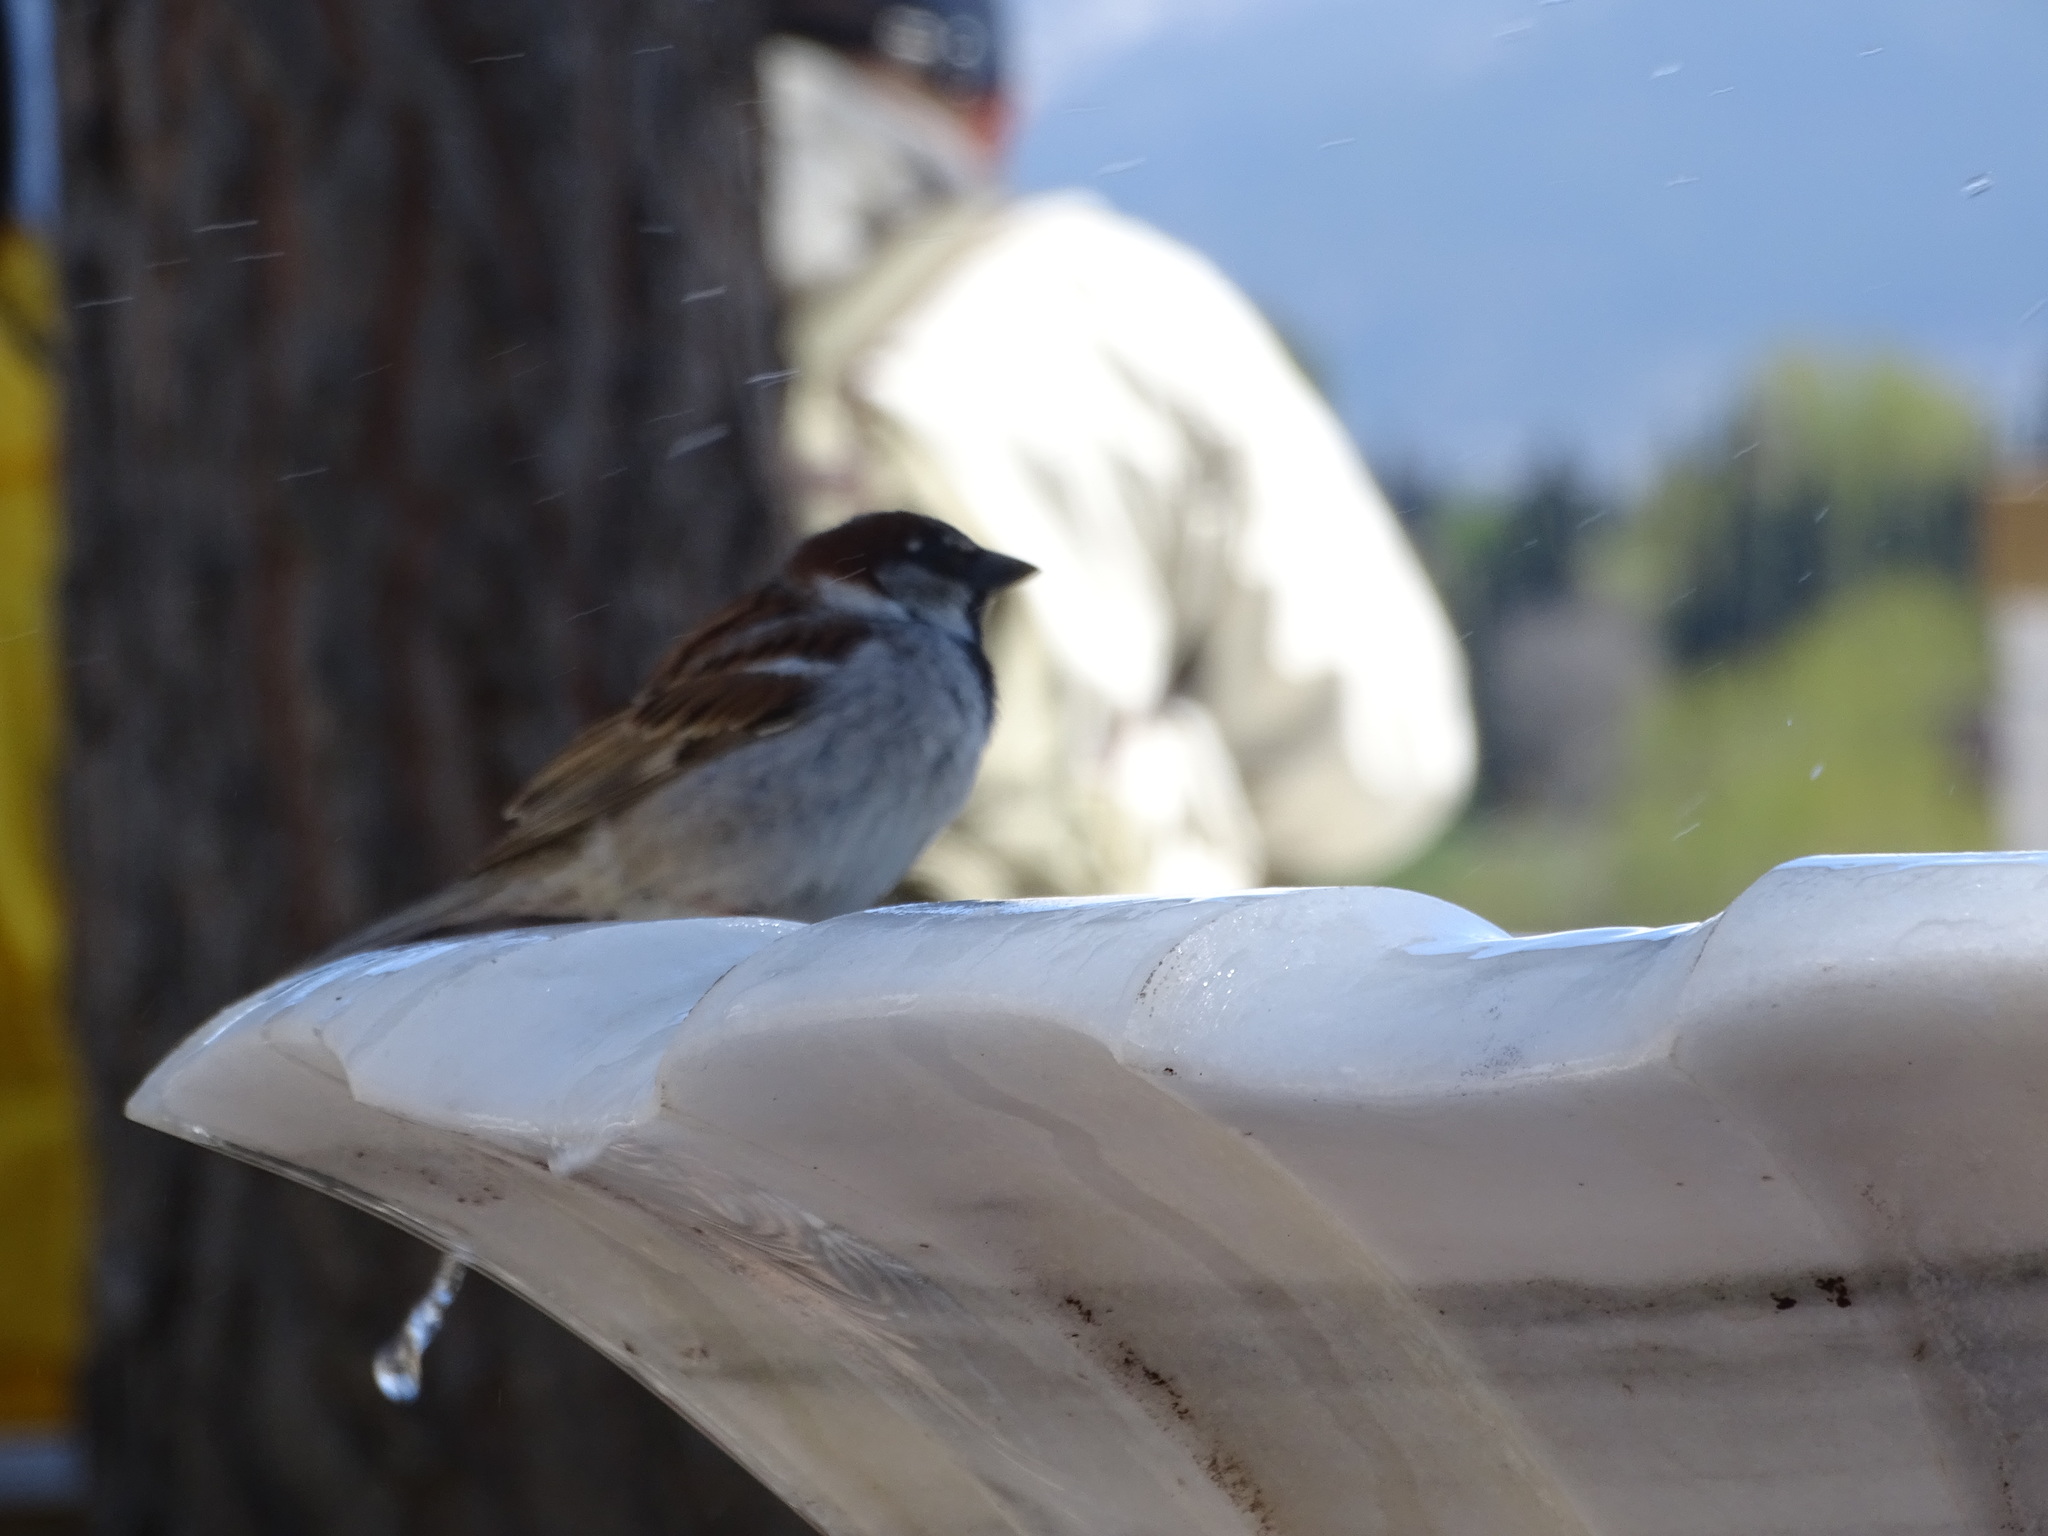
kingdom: Animalia
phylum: Chordata
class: Aves
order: Passeriformes
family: Passeridae
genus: Passer
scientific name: Passer domesticus
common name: House sparrow
